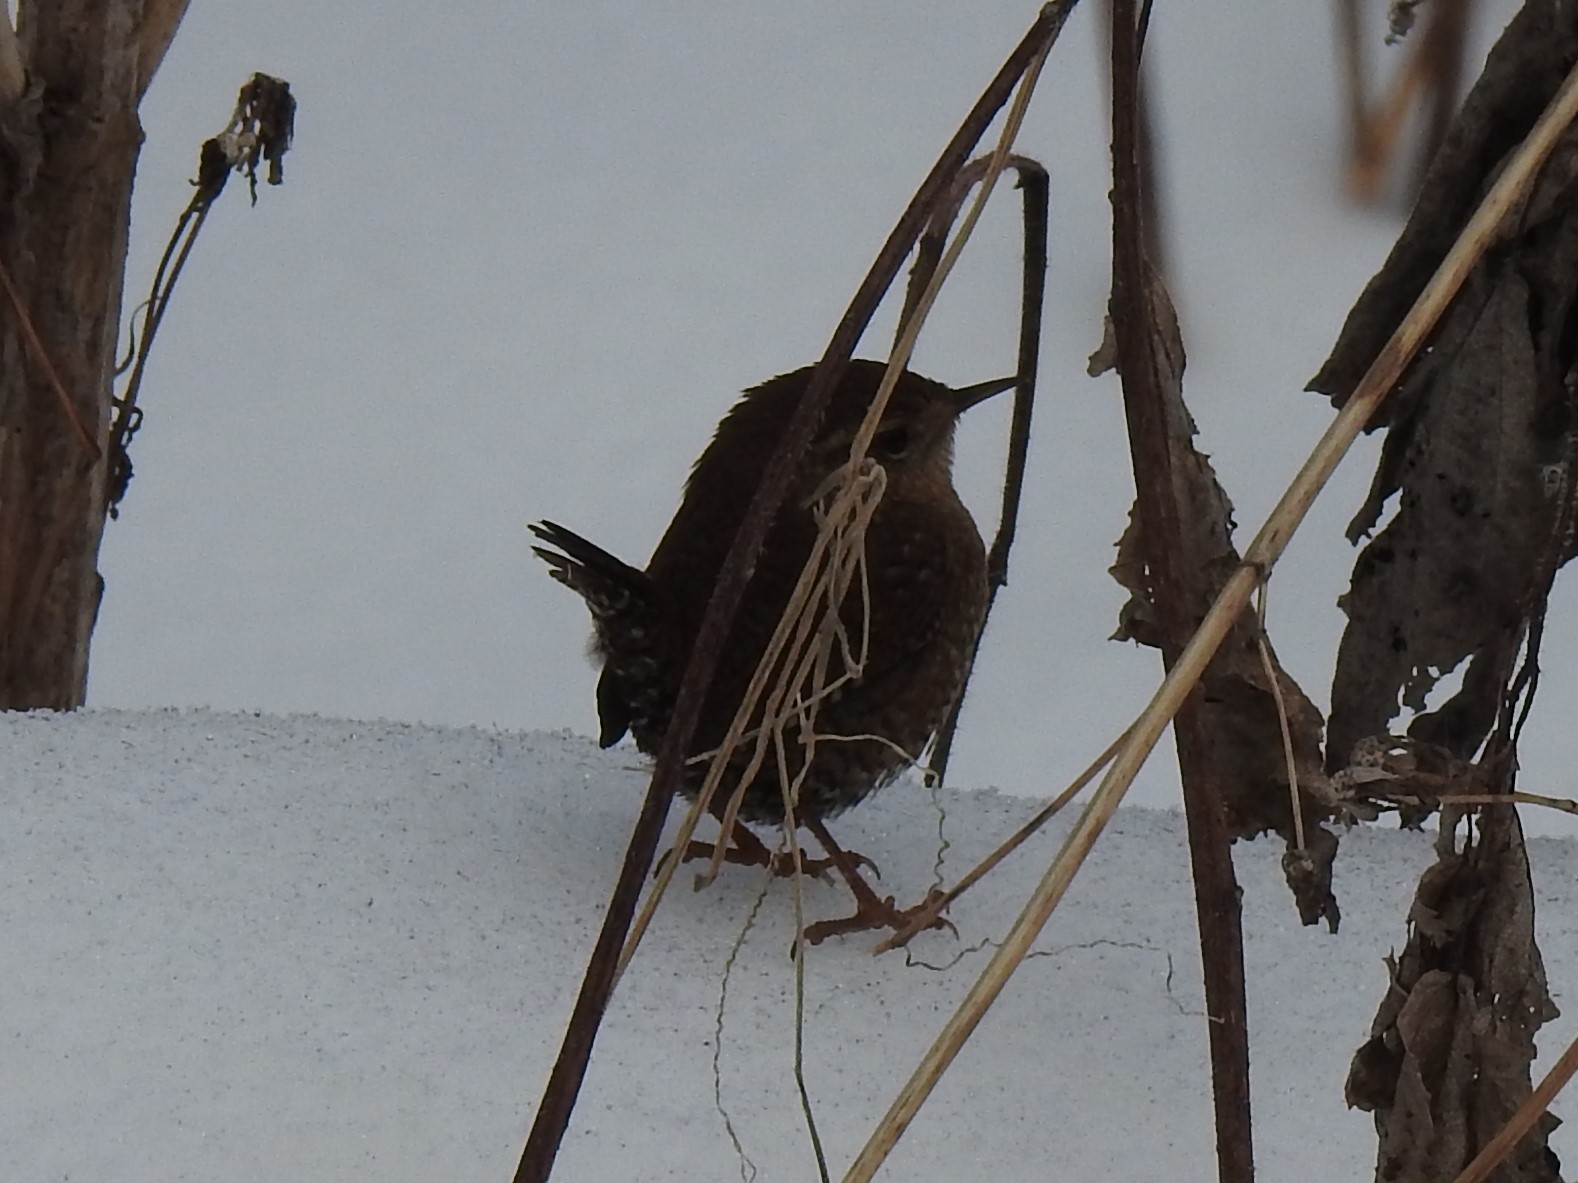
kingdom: Animalia
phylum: Chordata
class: Aves
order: Passeriformes
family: Troglodytidae
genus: Troglodytes
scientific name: Troglodytes hiemalis
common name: Winter wren
